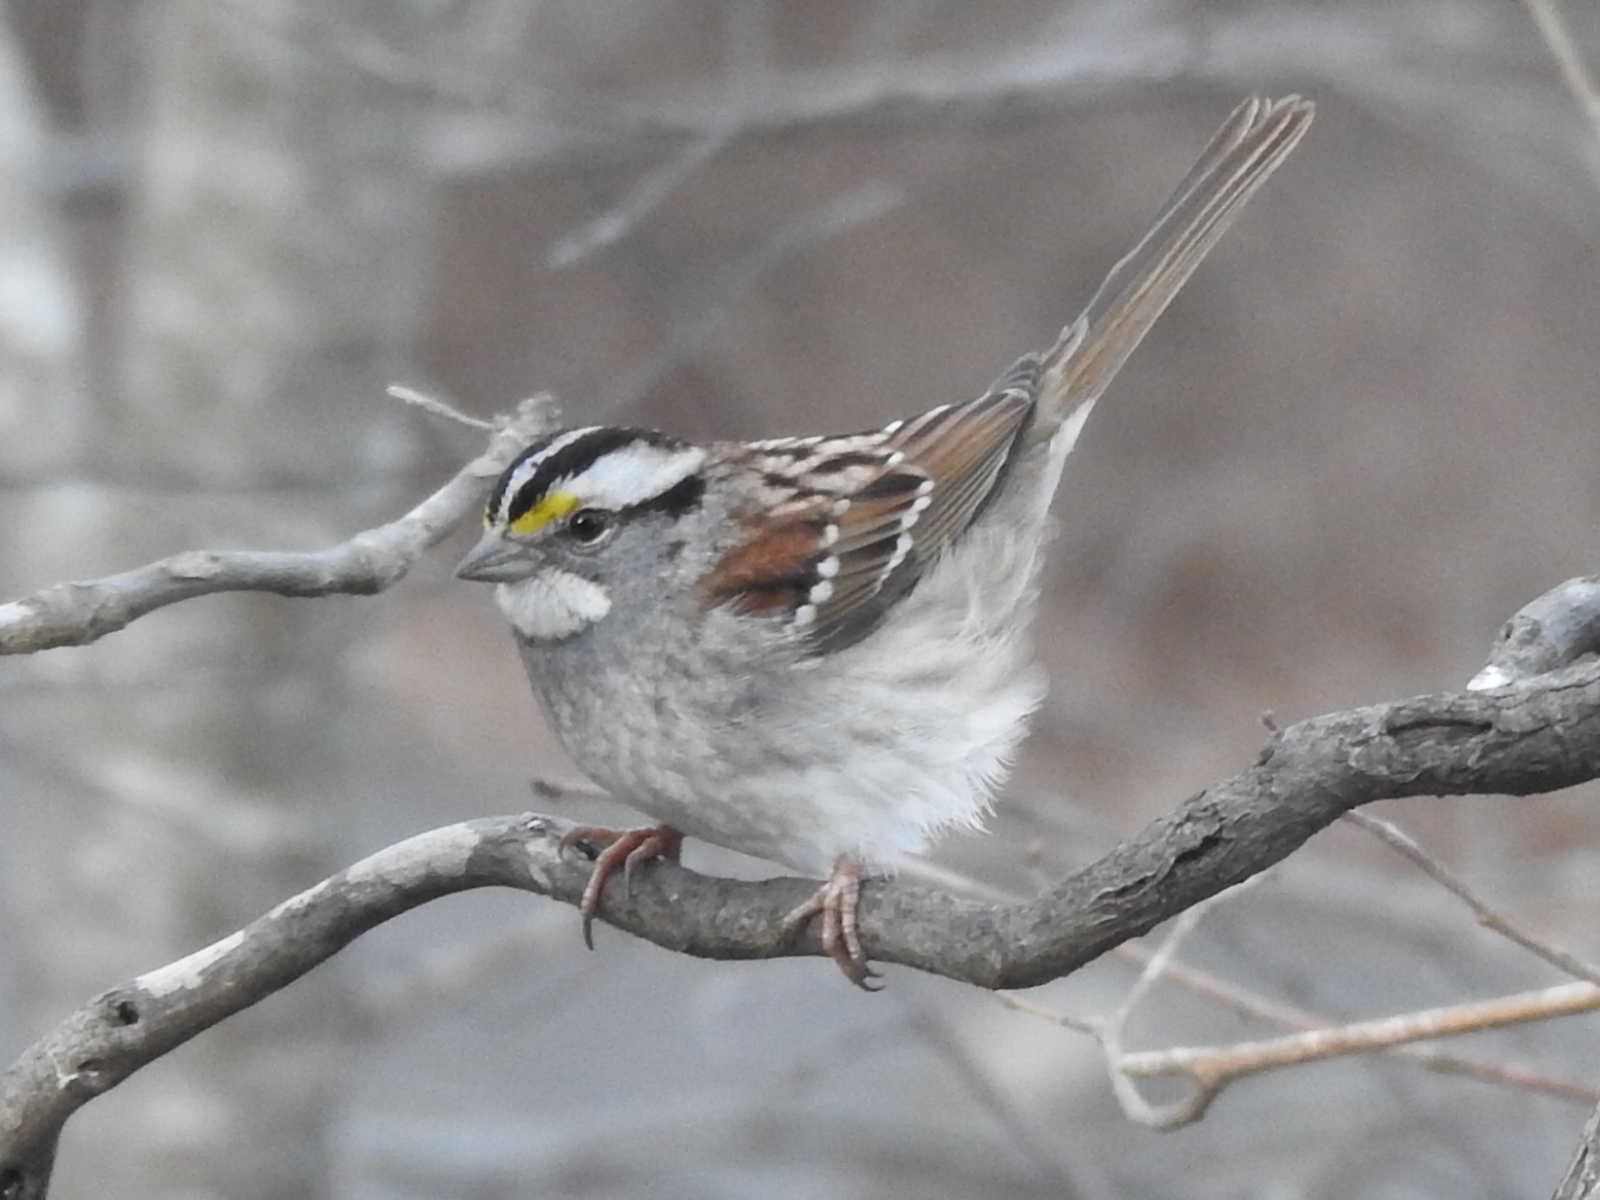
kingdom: Animalia
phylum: Chordata
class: Aves
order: Passeriformes
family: Passerellidae
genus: Zonotrichia
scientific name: Zonotrichia albicollis
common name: White-throated sparrow
